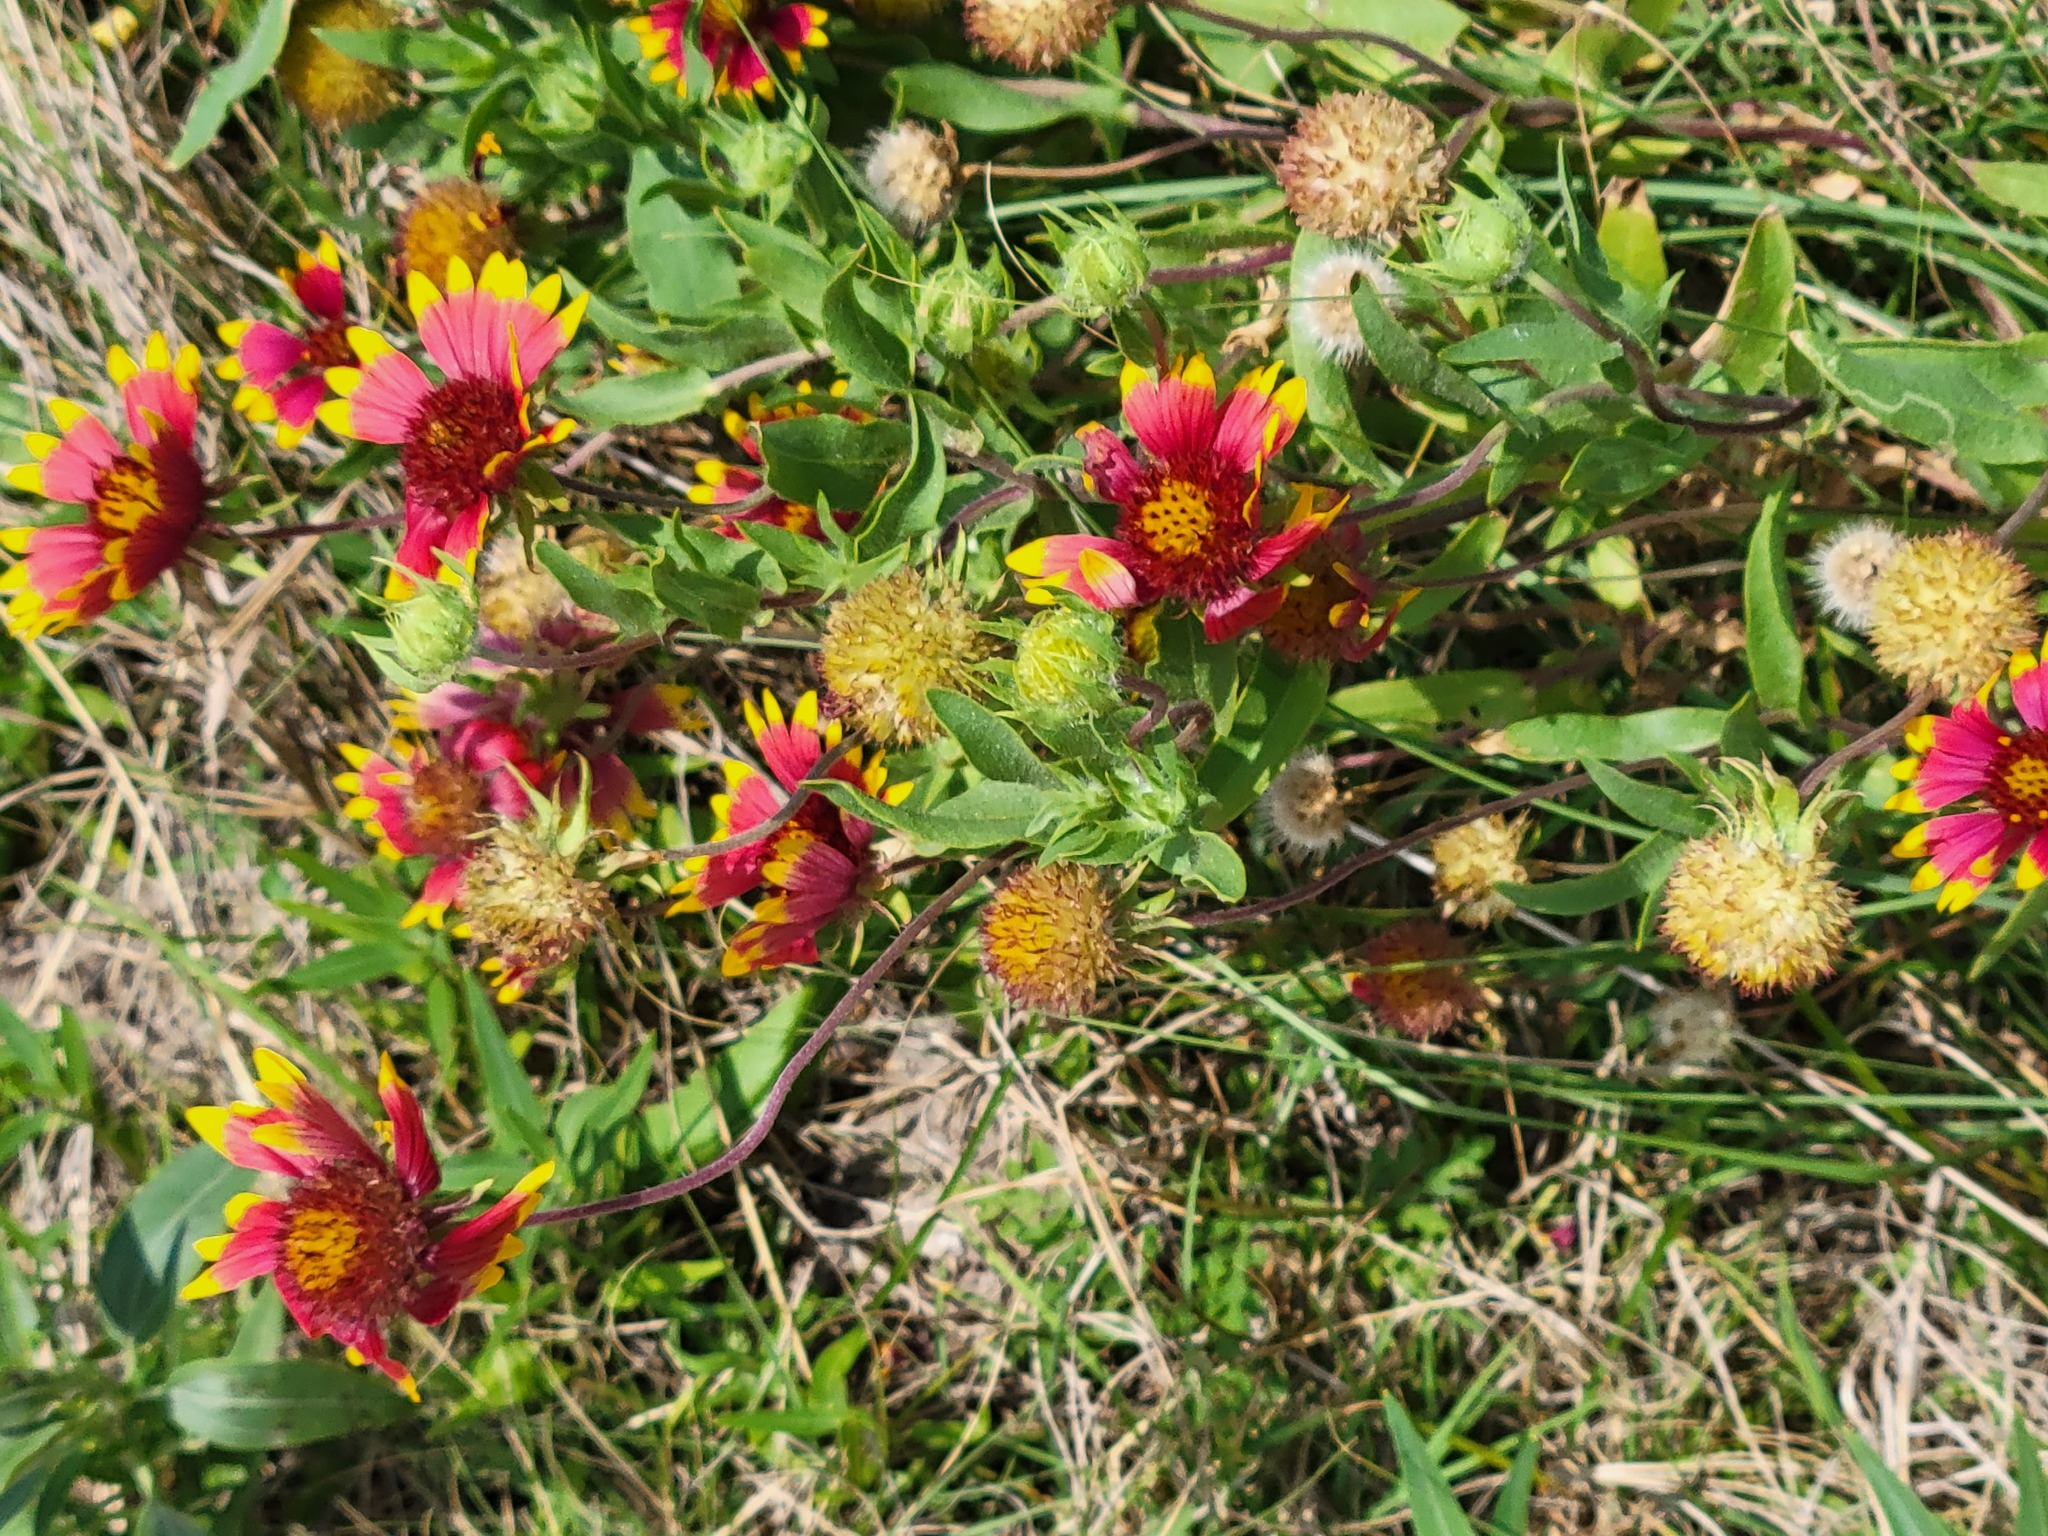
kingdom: Plantae
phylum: Tracheophyta
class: Magnoliopsida
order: Asterales
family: Asteraceae
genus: Gaillardia
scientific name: Gaillardia pulchella
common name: Firewheel
